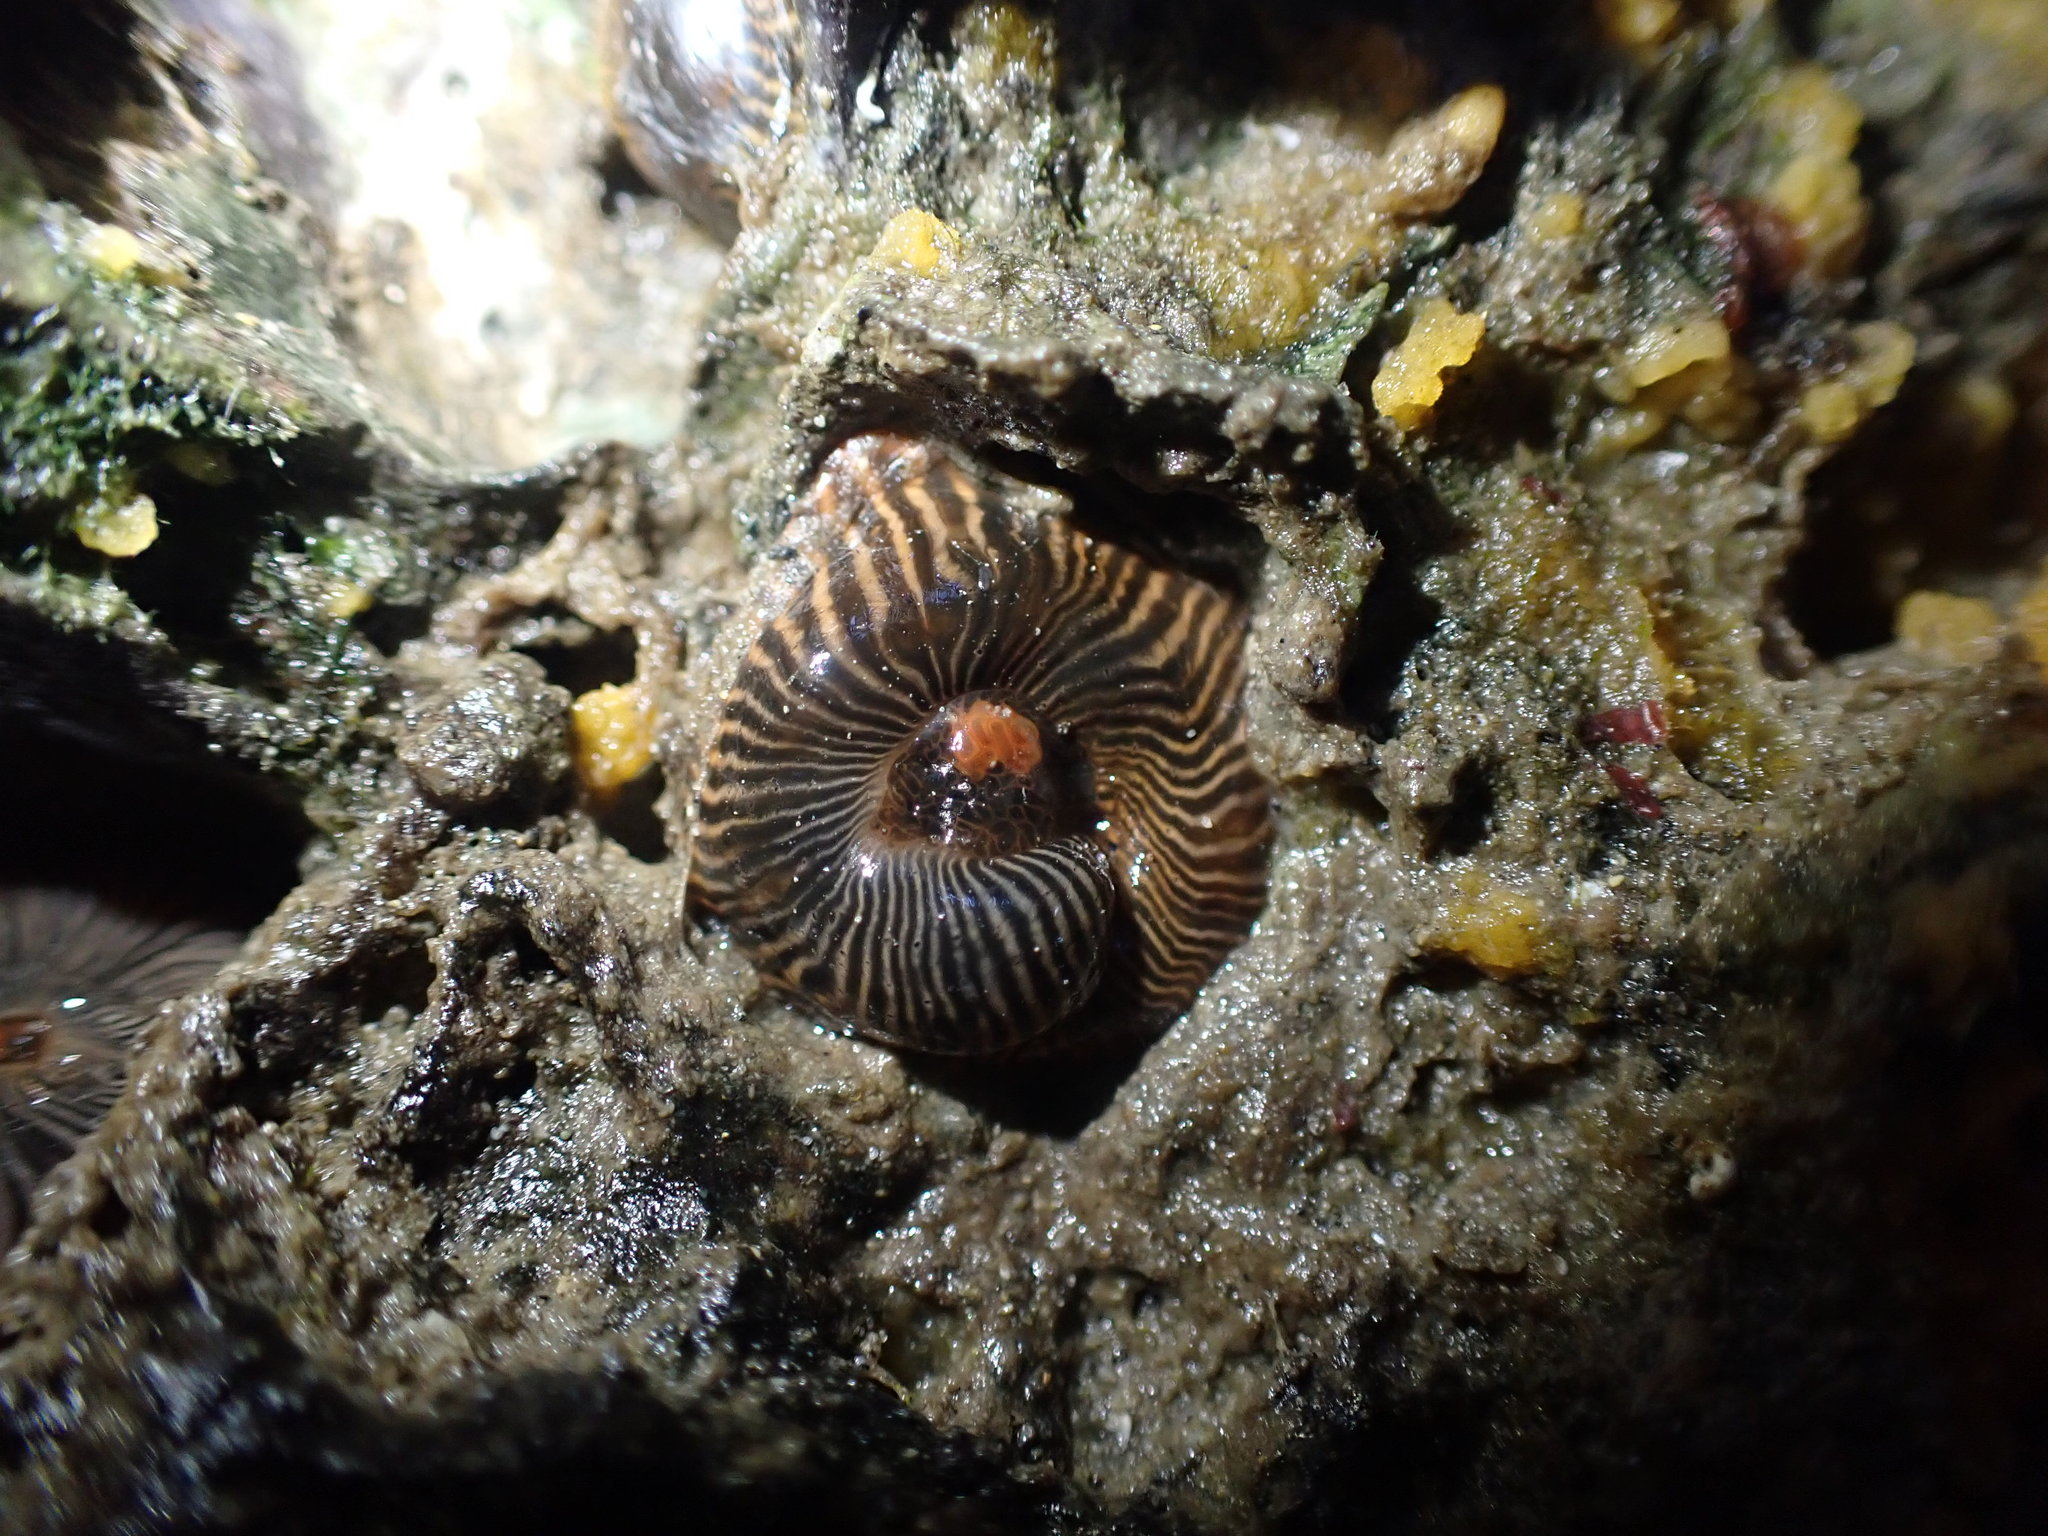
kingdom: Animalia
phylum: Cnidaria
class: Anthozoa
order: Actiniaria
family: Diadumenidae
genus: Diadumene
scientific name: Diadumene neozelanica
